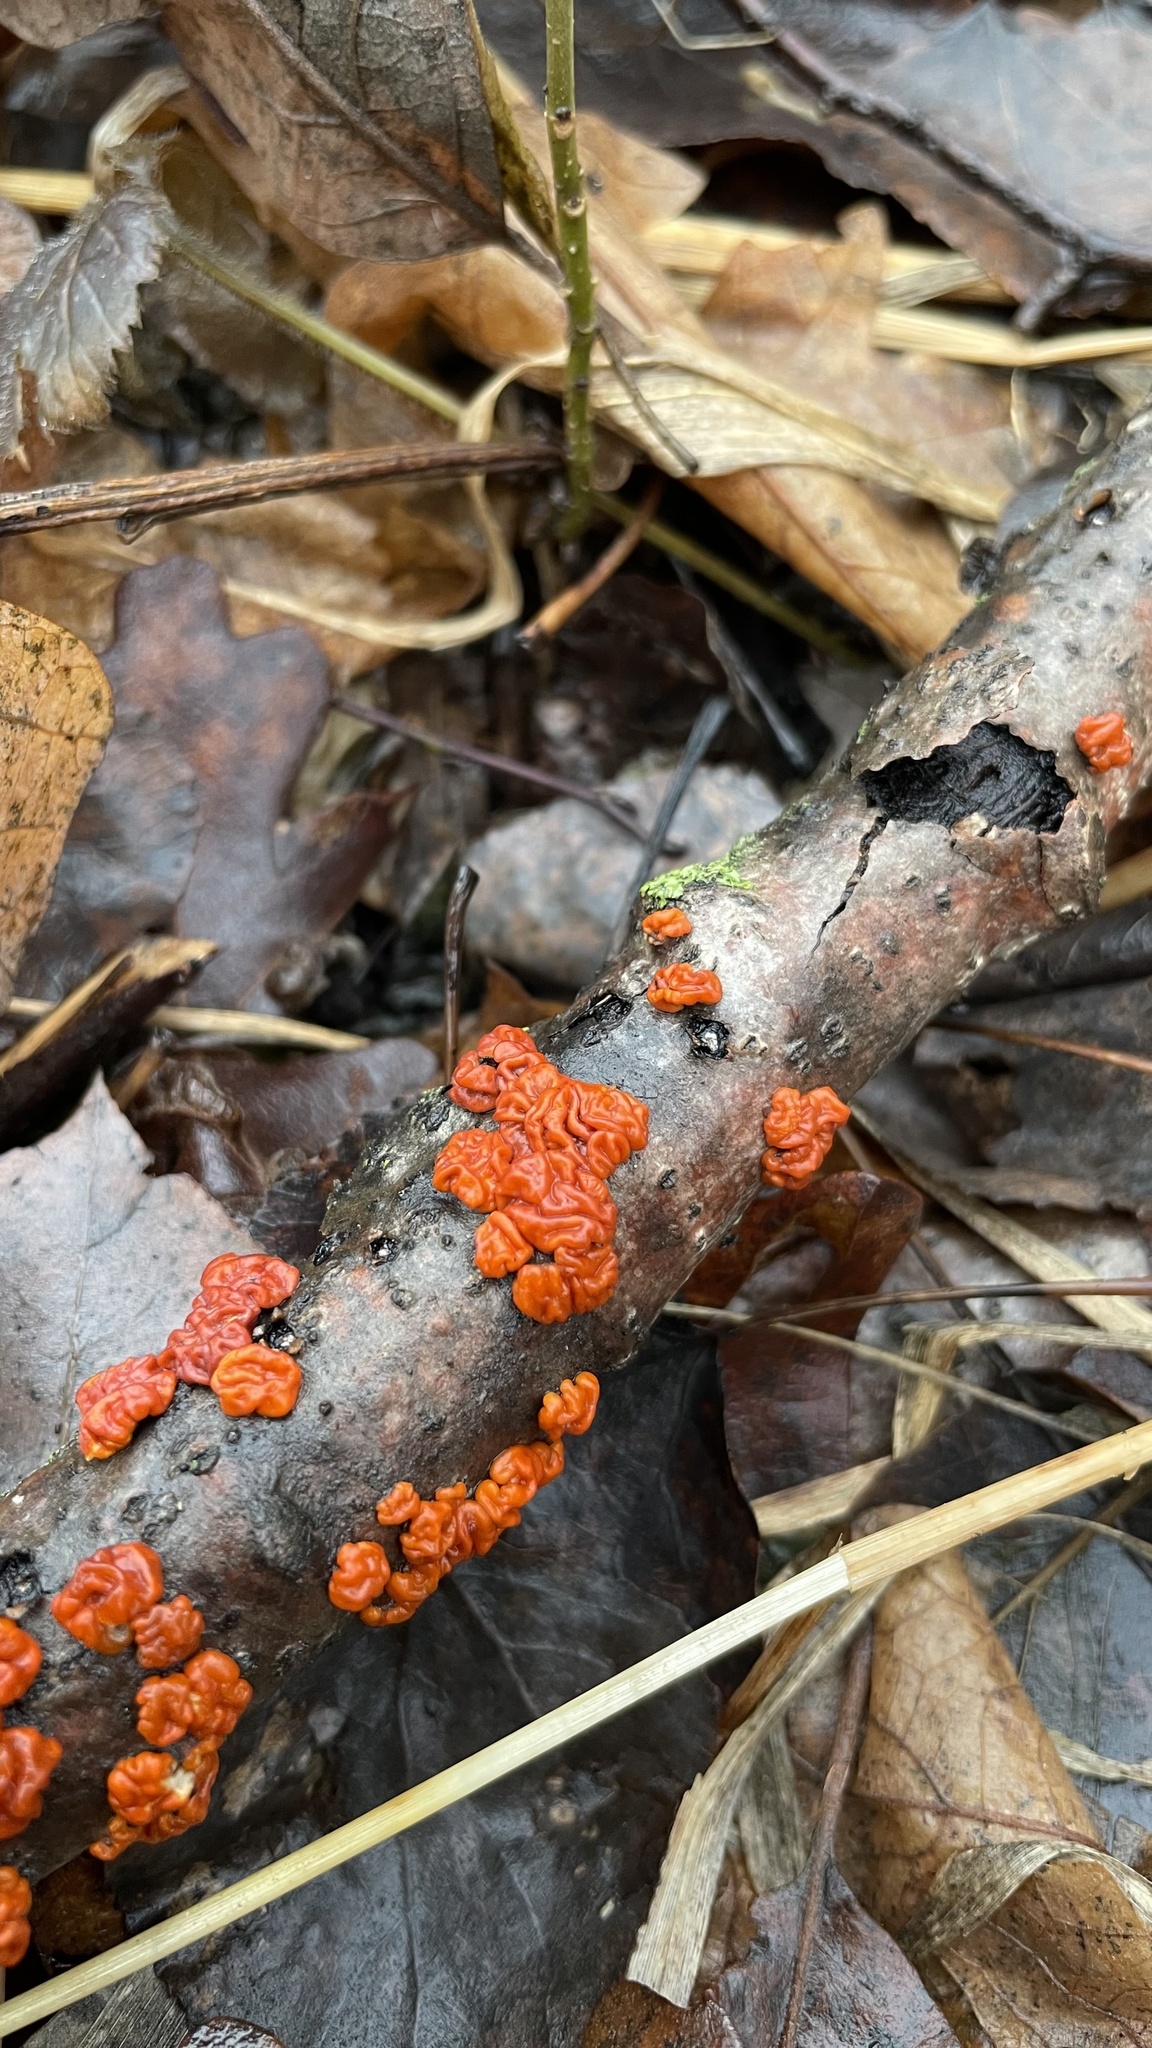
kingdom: Fungi
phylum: Basidiomycota
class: Agaricomycetes
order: Russulales
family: Peniophoraceae
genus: Peniophora
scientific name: Peniophora rufa
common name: Red tree brain fungus
